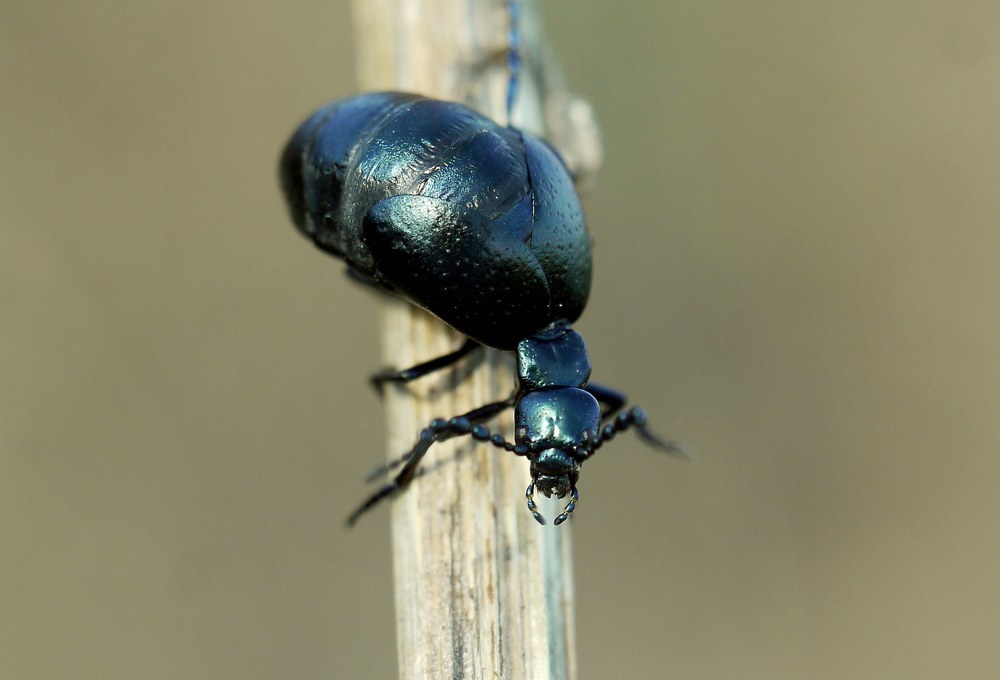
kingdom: Animalia
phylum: Arthropoda
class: Insecta
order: Coleoptera
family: Meloidae
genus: Meloe
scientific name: Meloe autumnalis
